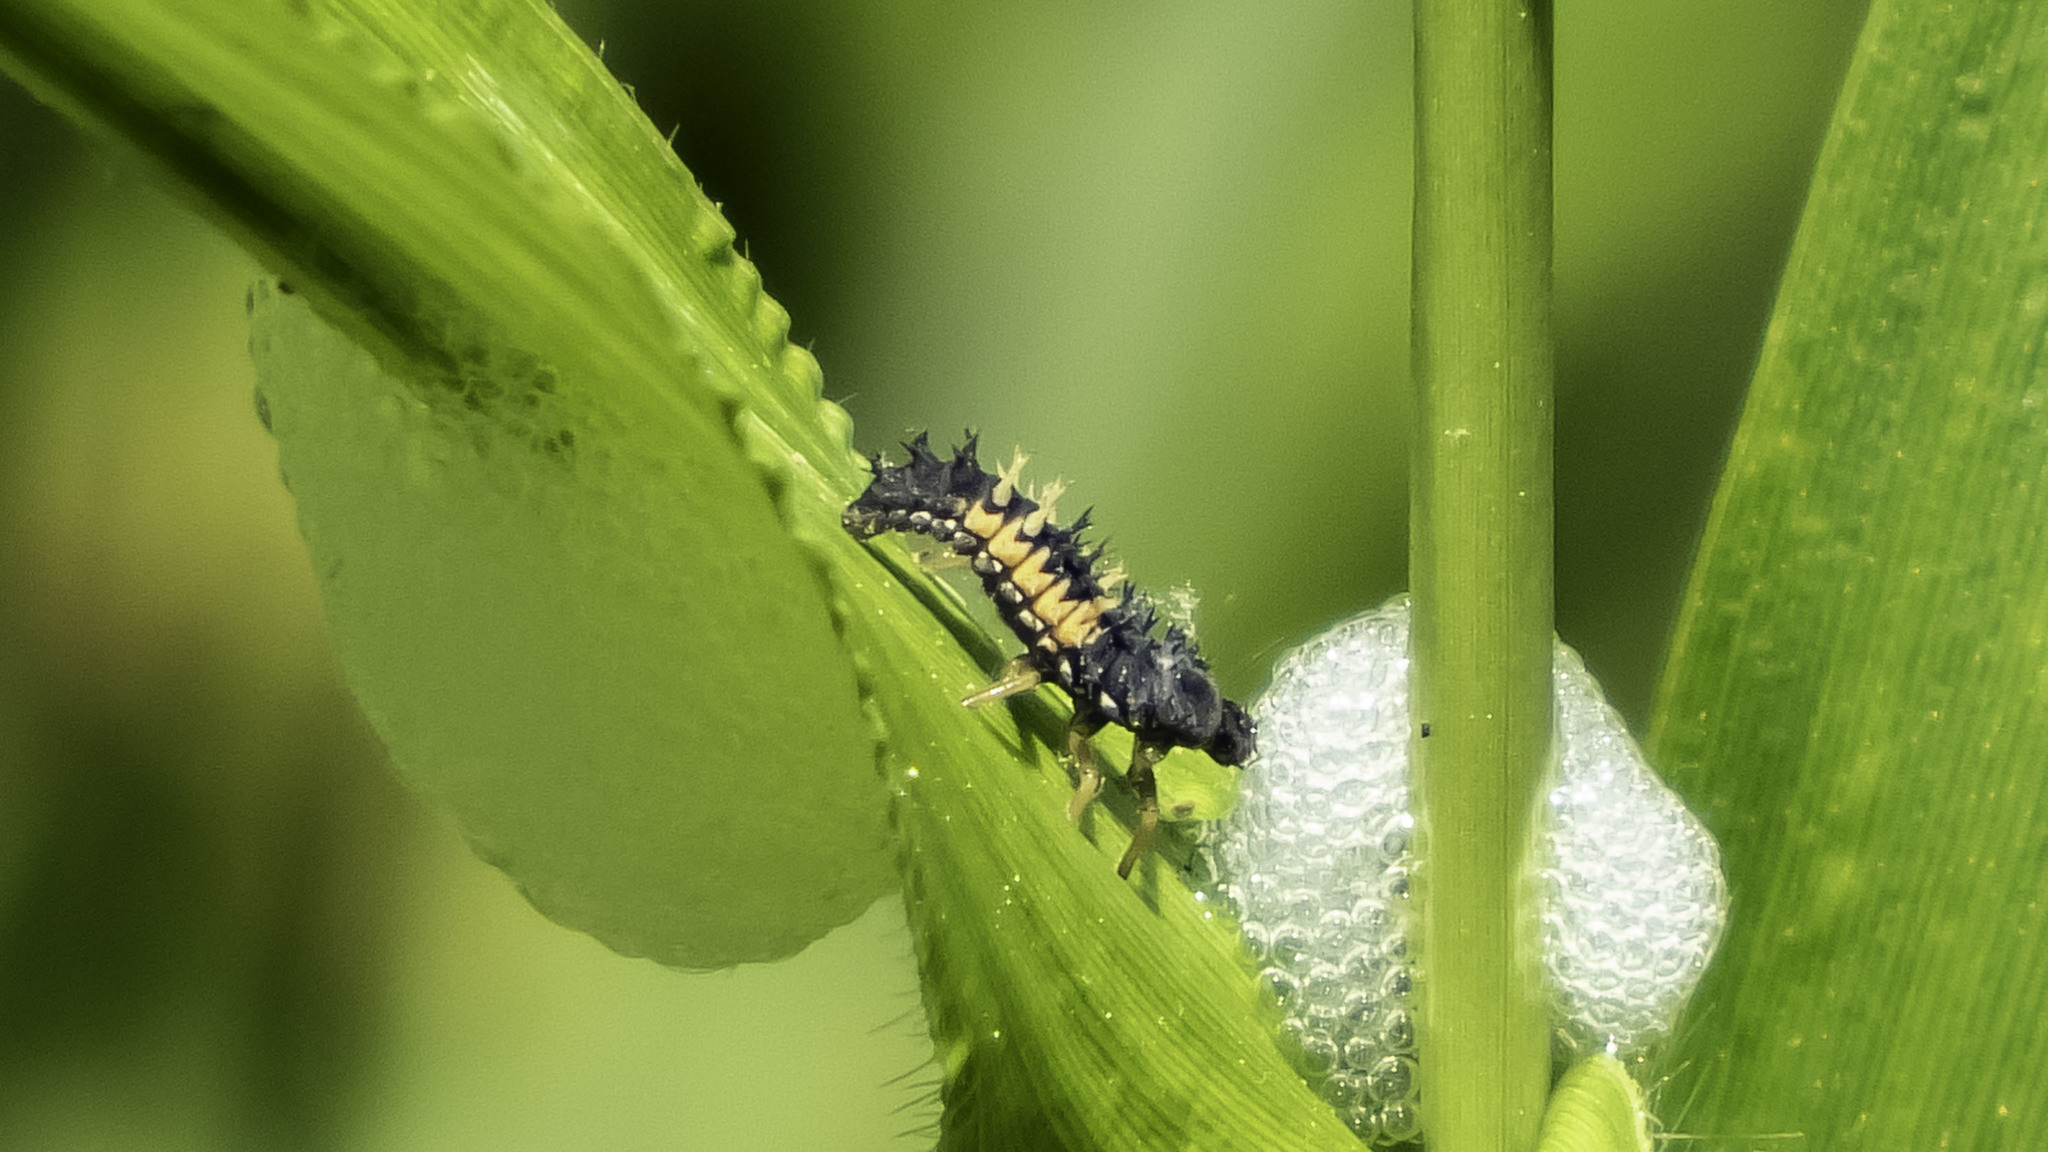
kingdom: Animalia
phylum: Arthropoda
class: Insecta
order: Coleoptera
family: Coccinellidae
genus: Harmonia
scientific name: Harmonia axyridis
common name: Harlequin ladybird
